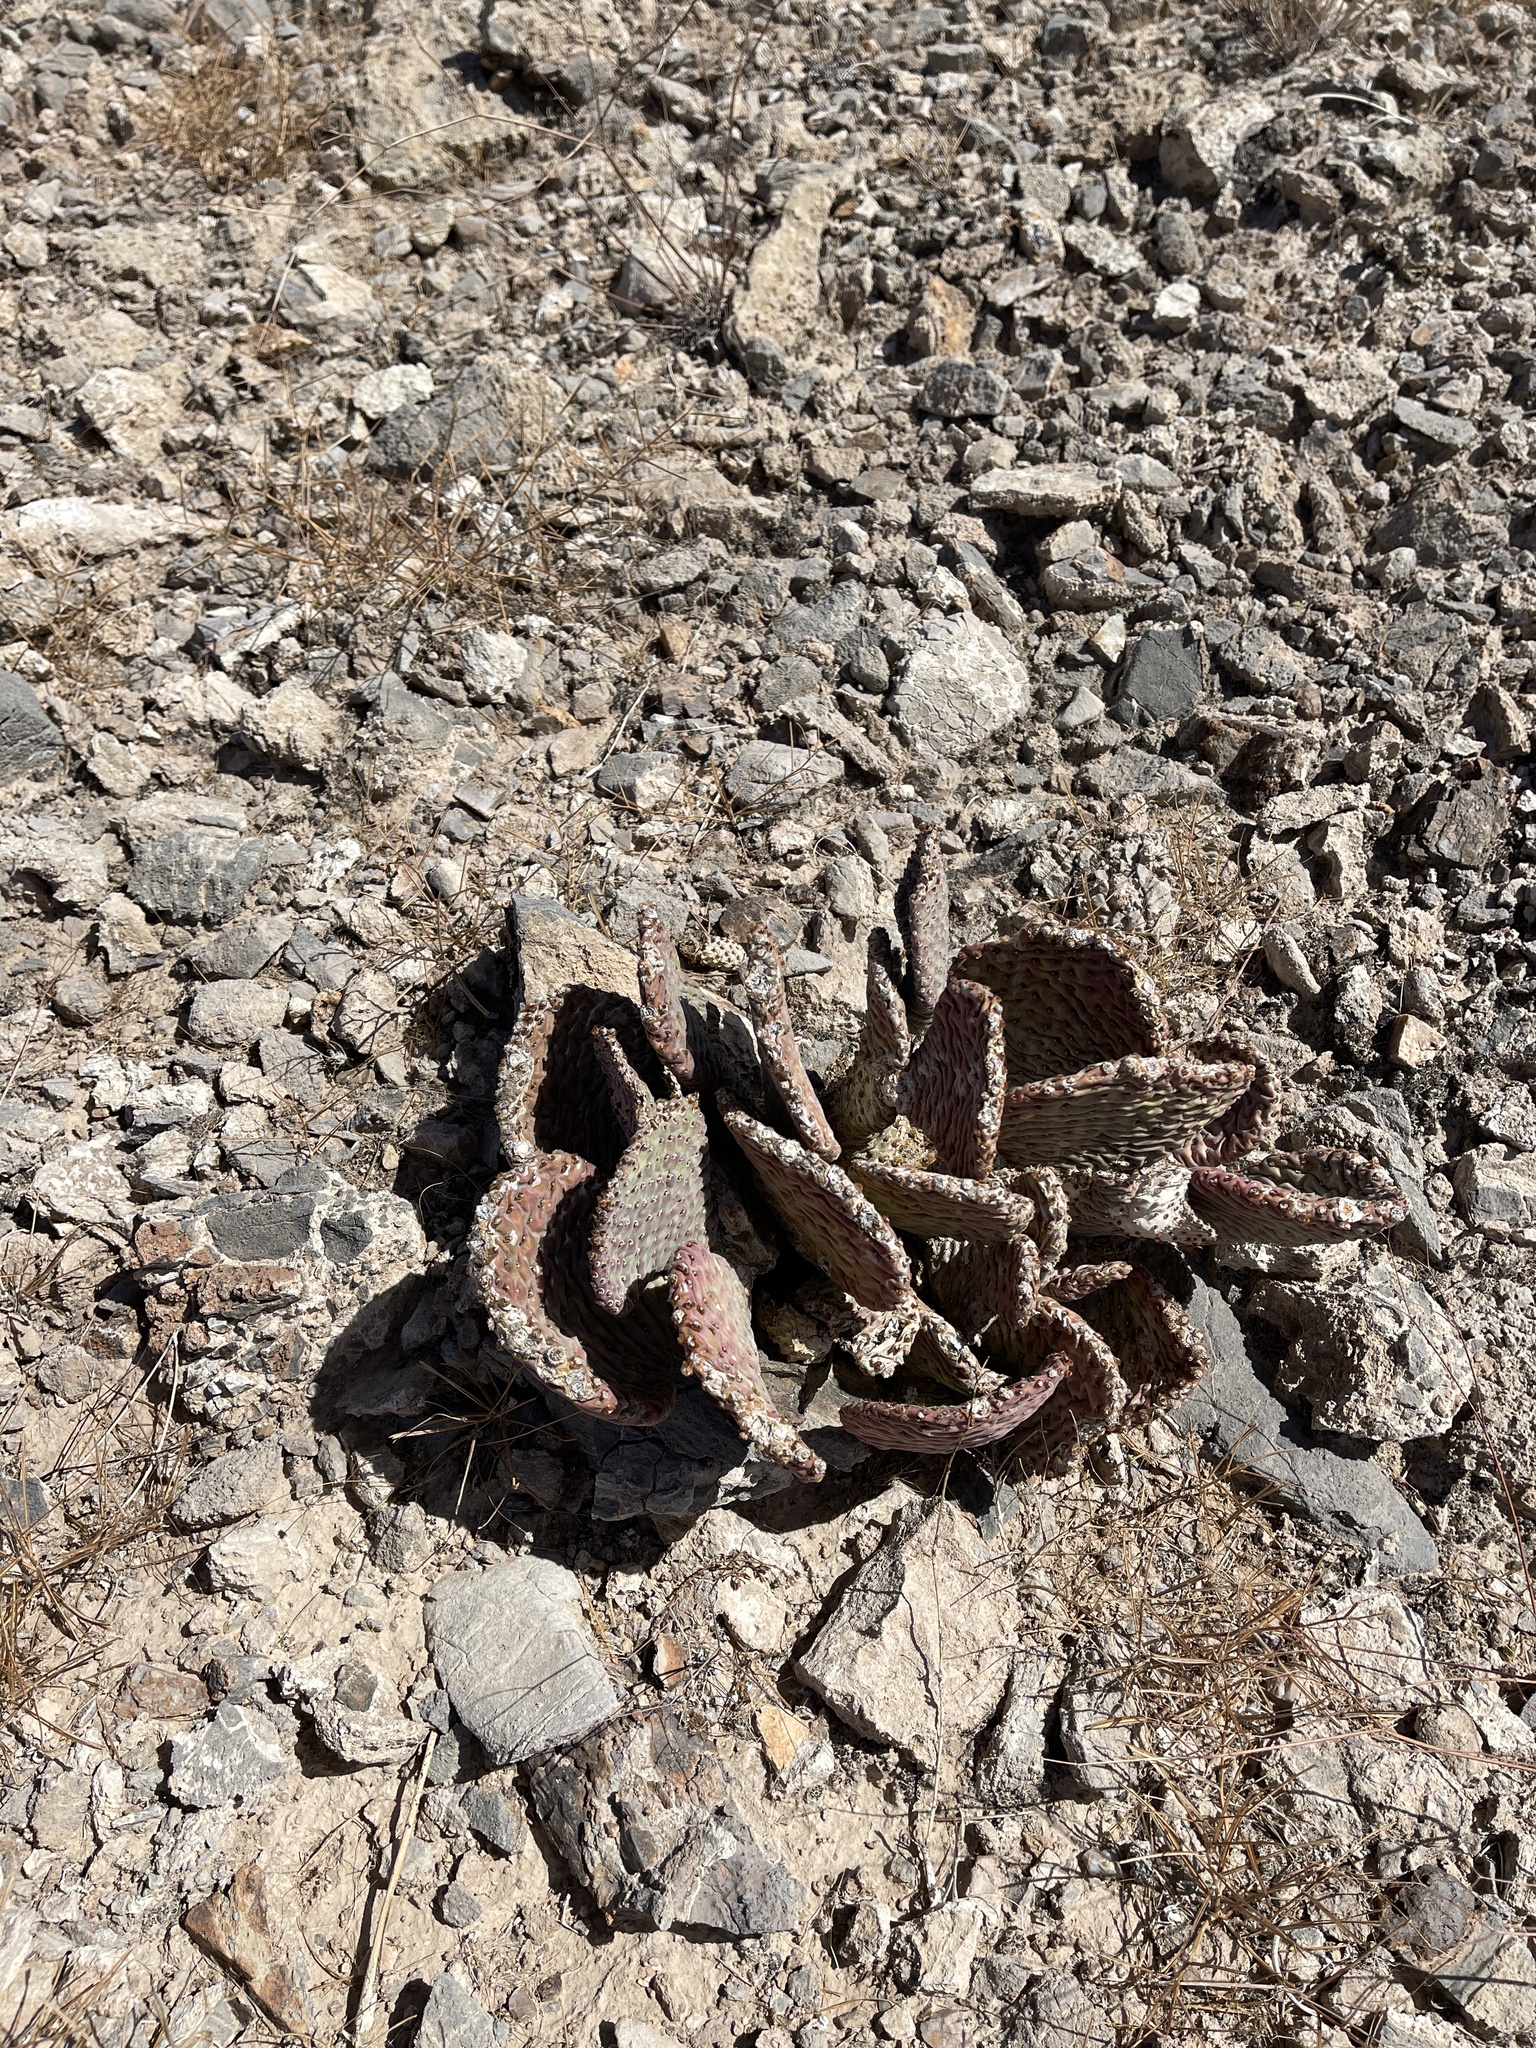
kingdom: Plantae
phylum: Tracheophyta
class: Magnoliopsida
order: Caryophyllales
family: Cactaceae
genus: Opuntia
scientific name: Opuntia basilaris
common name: Beavertail prickly-pear
